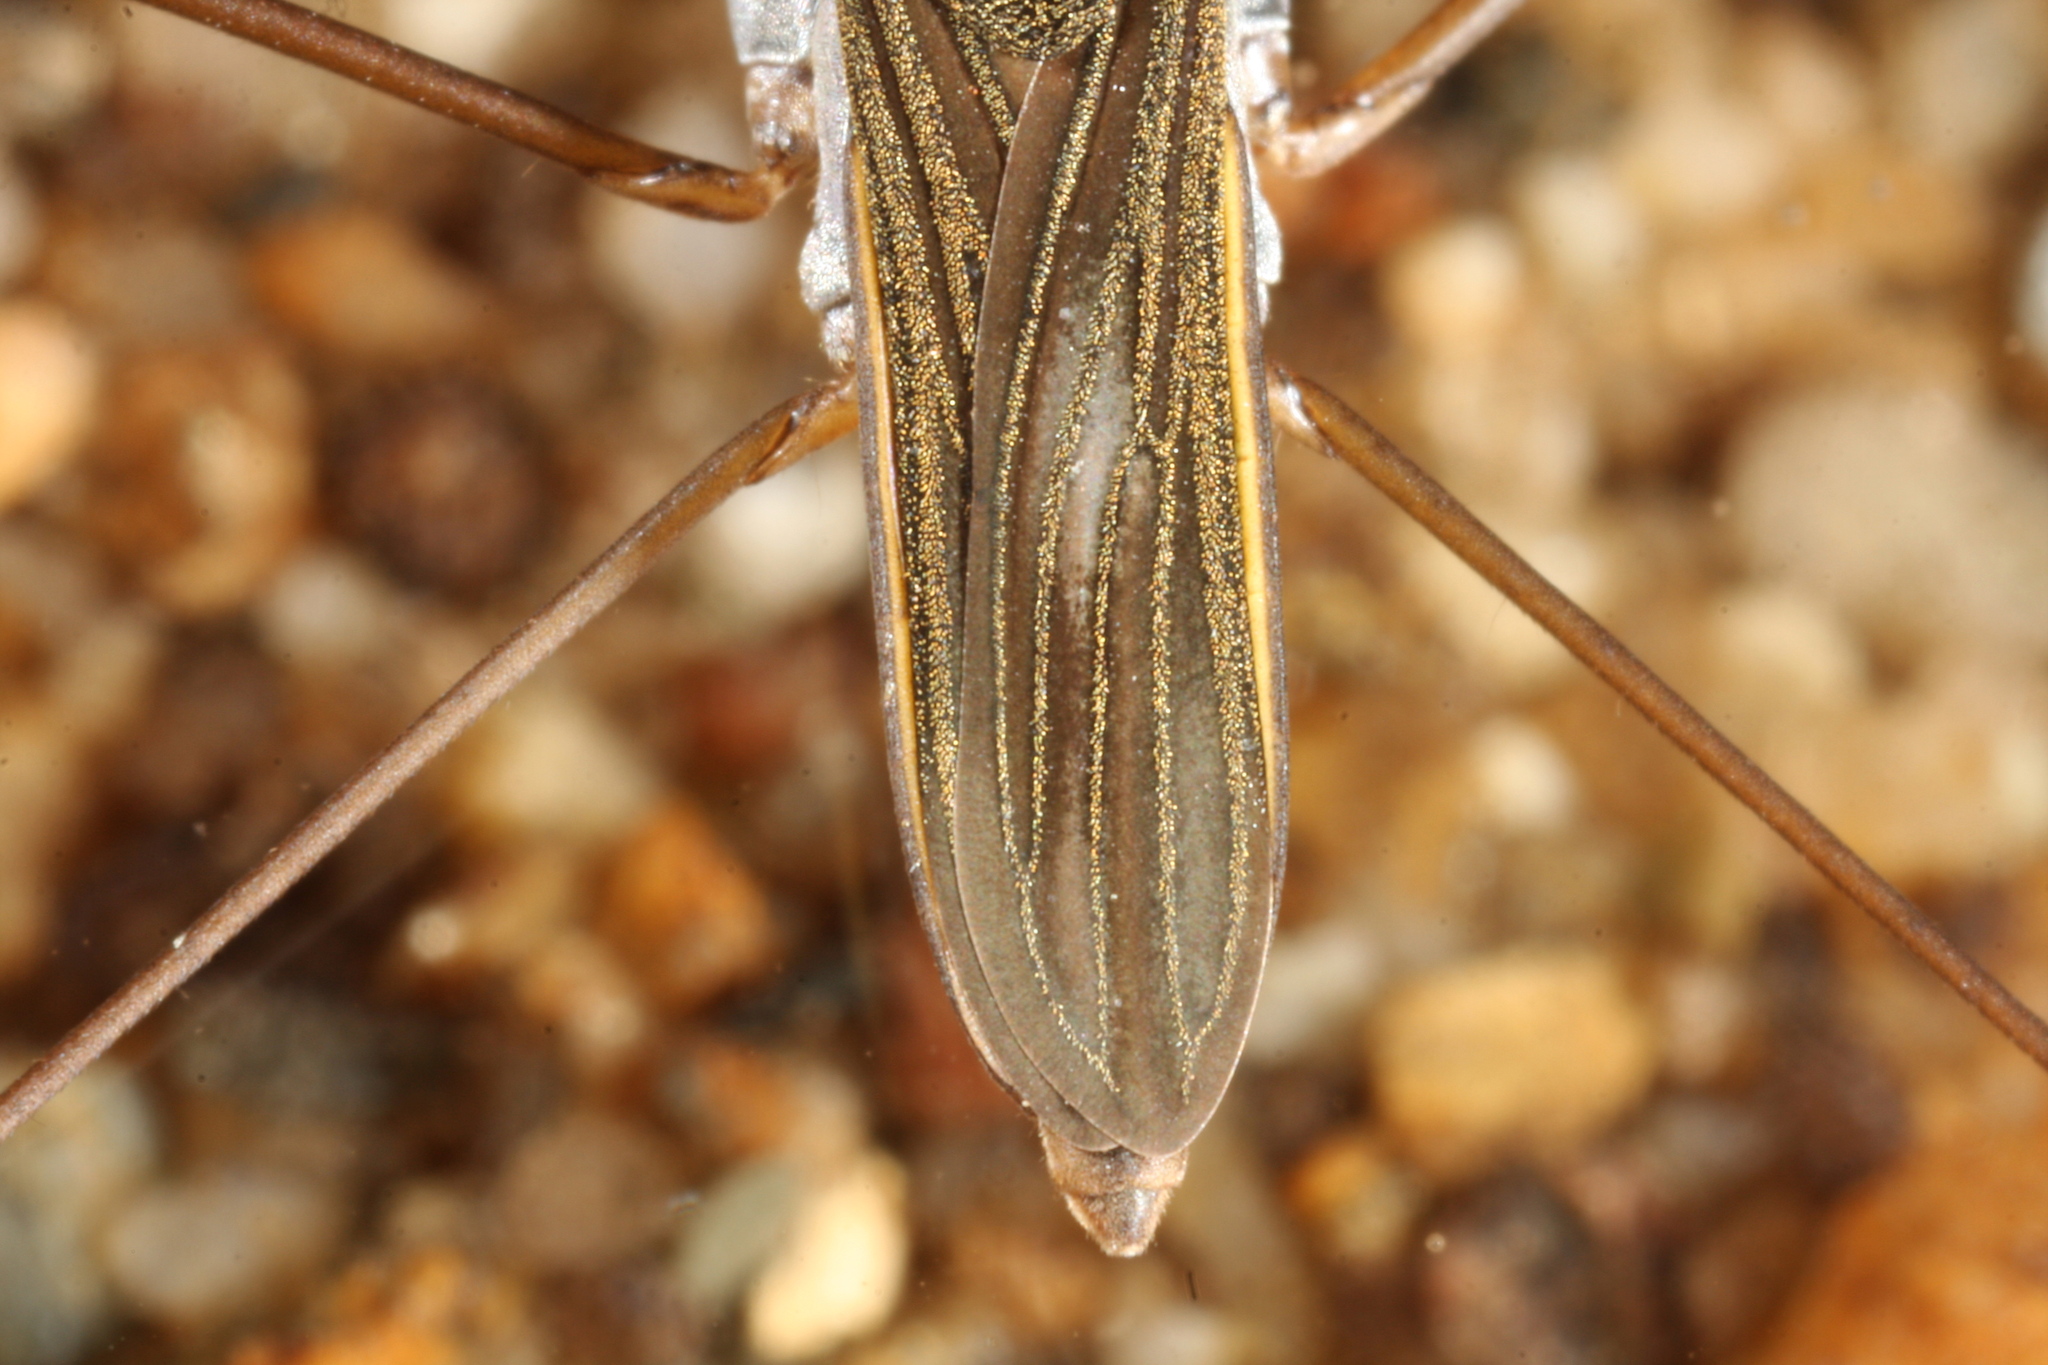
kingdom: Animalia
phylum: Arthropoda
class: Insecta
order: Hemiptera
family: Gerridae
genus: Gerris
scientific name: Gerris lacustris
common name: Common pondskater
